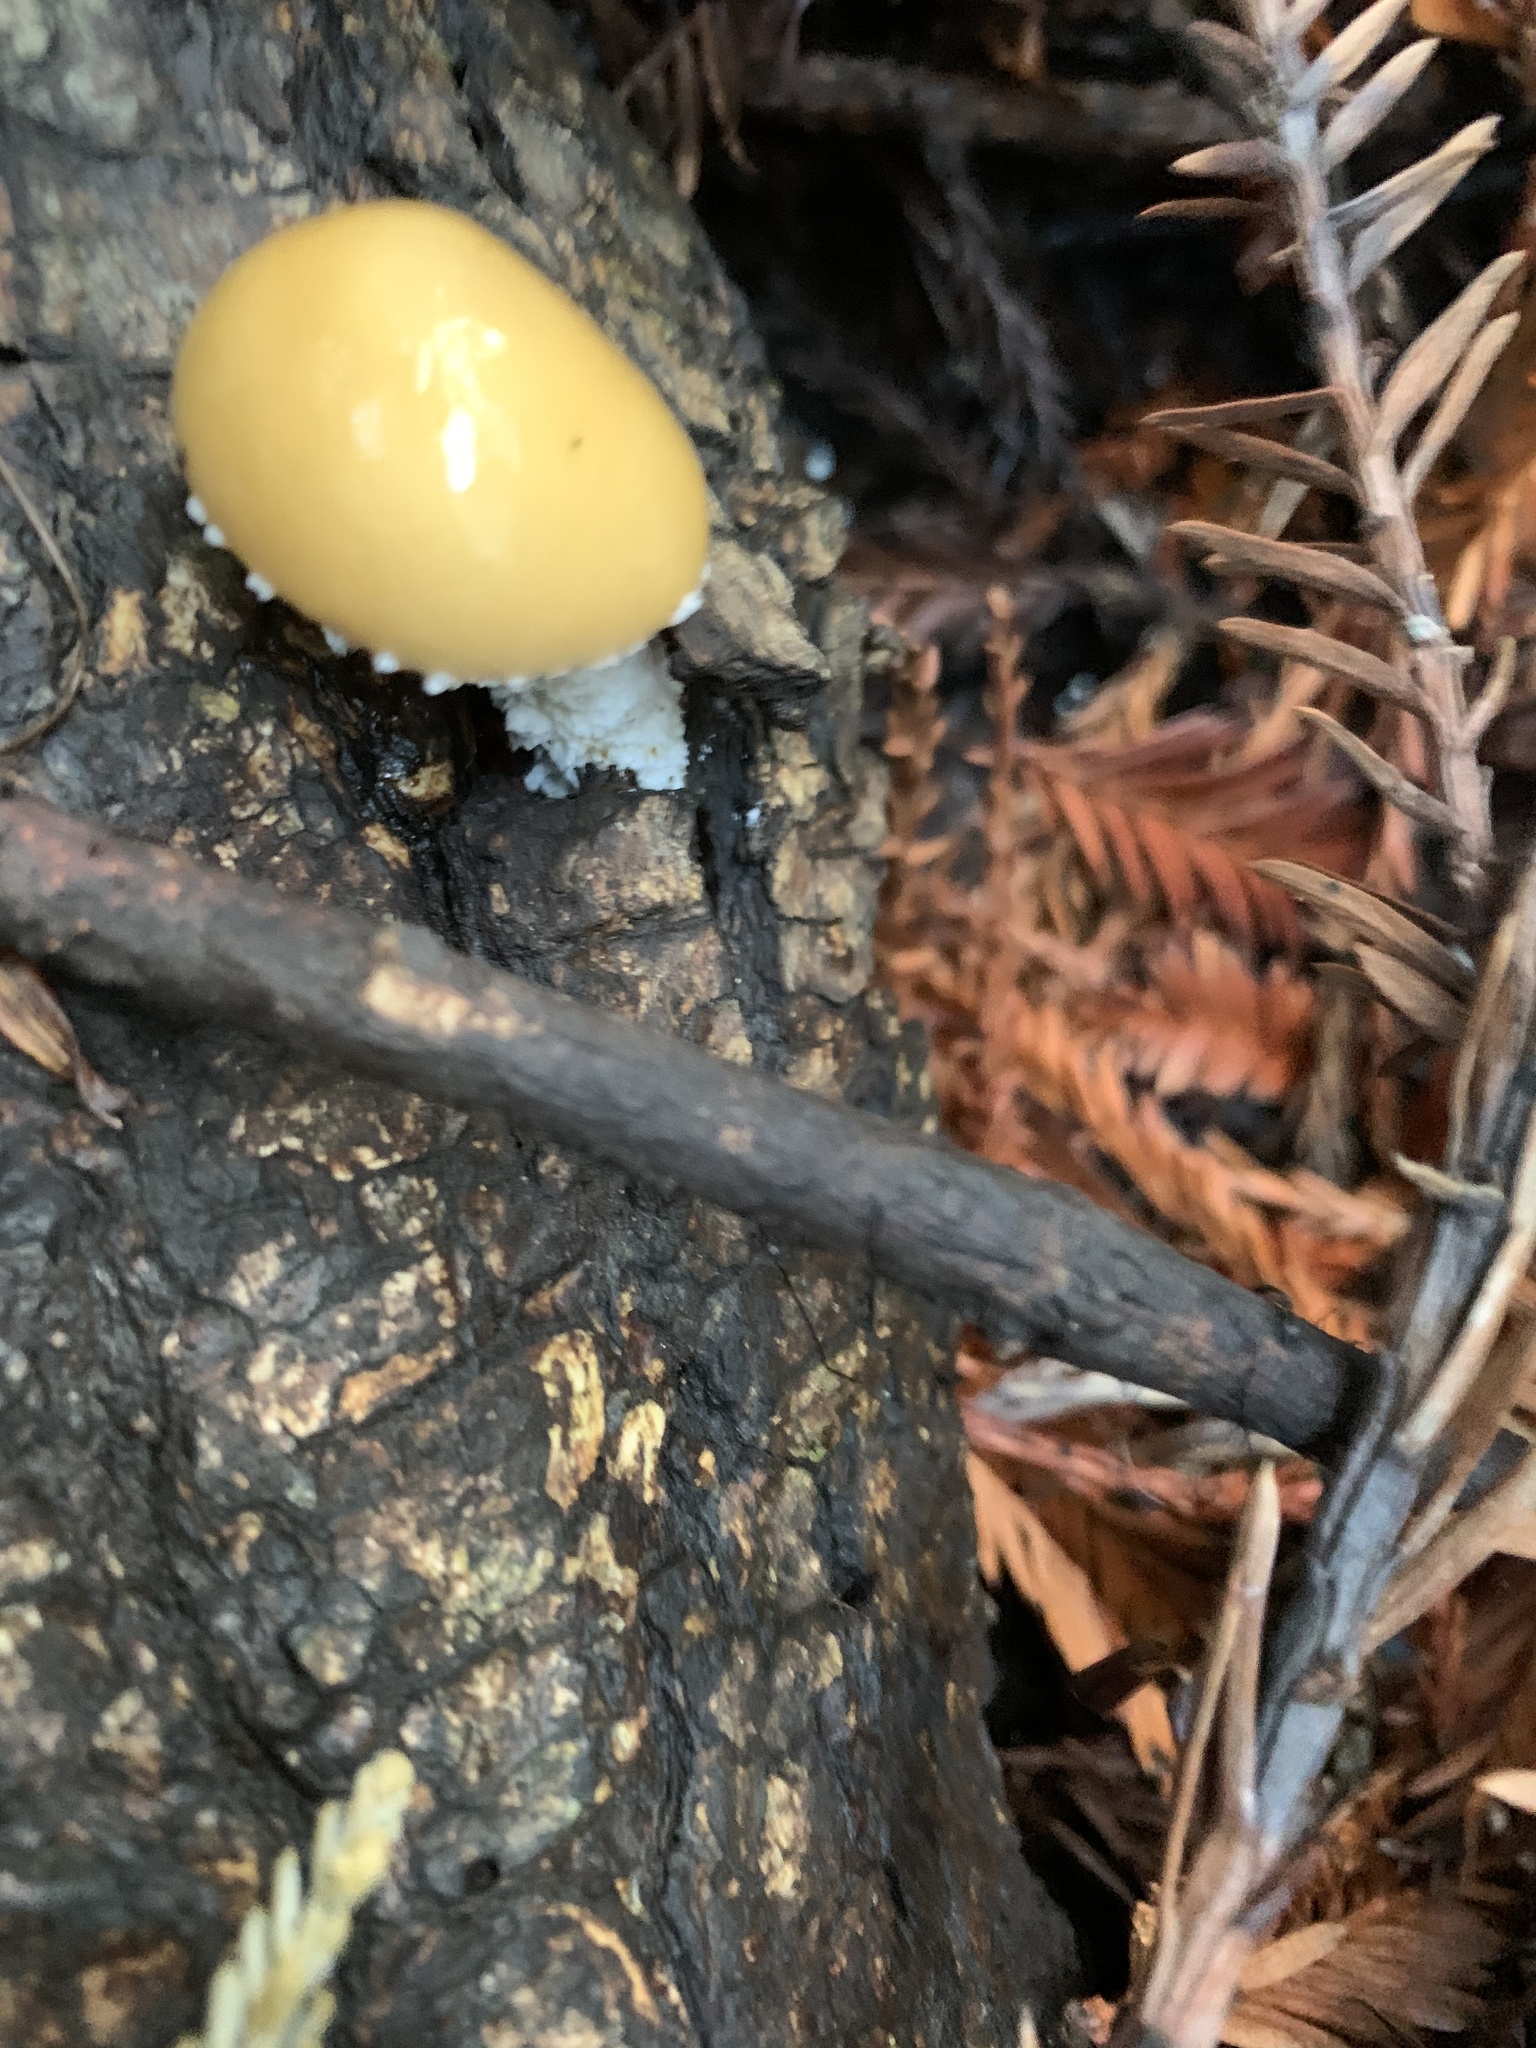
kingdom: Fungi
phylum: Basidiomycota
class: Agaricomycetes
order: Agaricales
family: Strophariaceae
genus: Stropharia
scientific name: Stropharia ambigua
